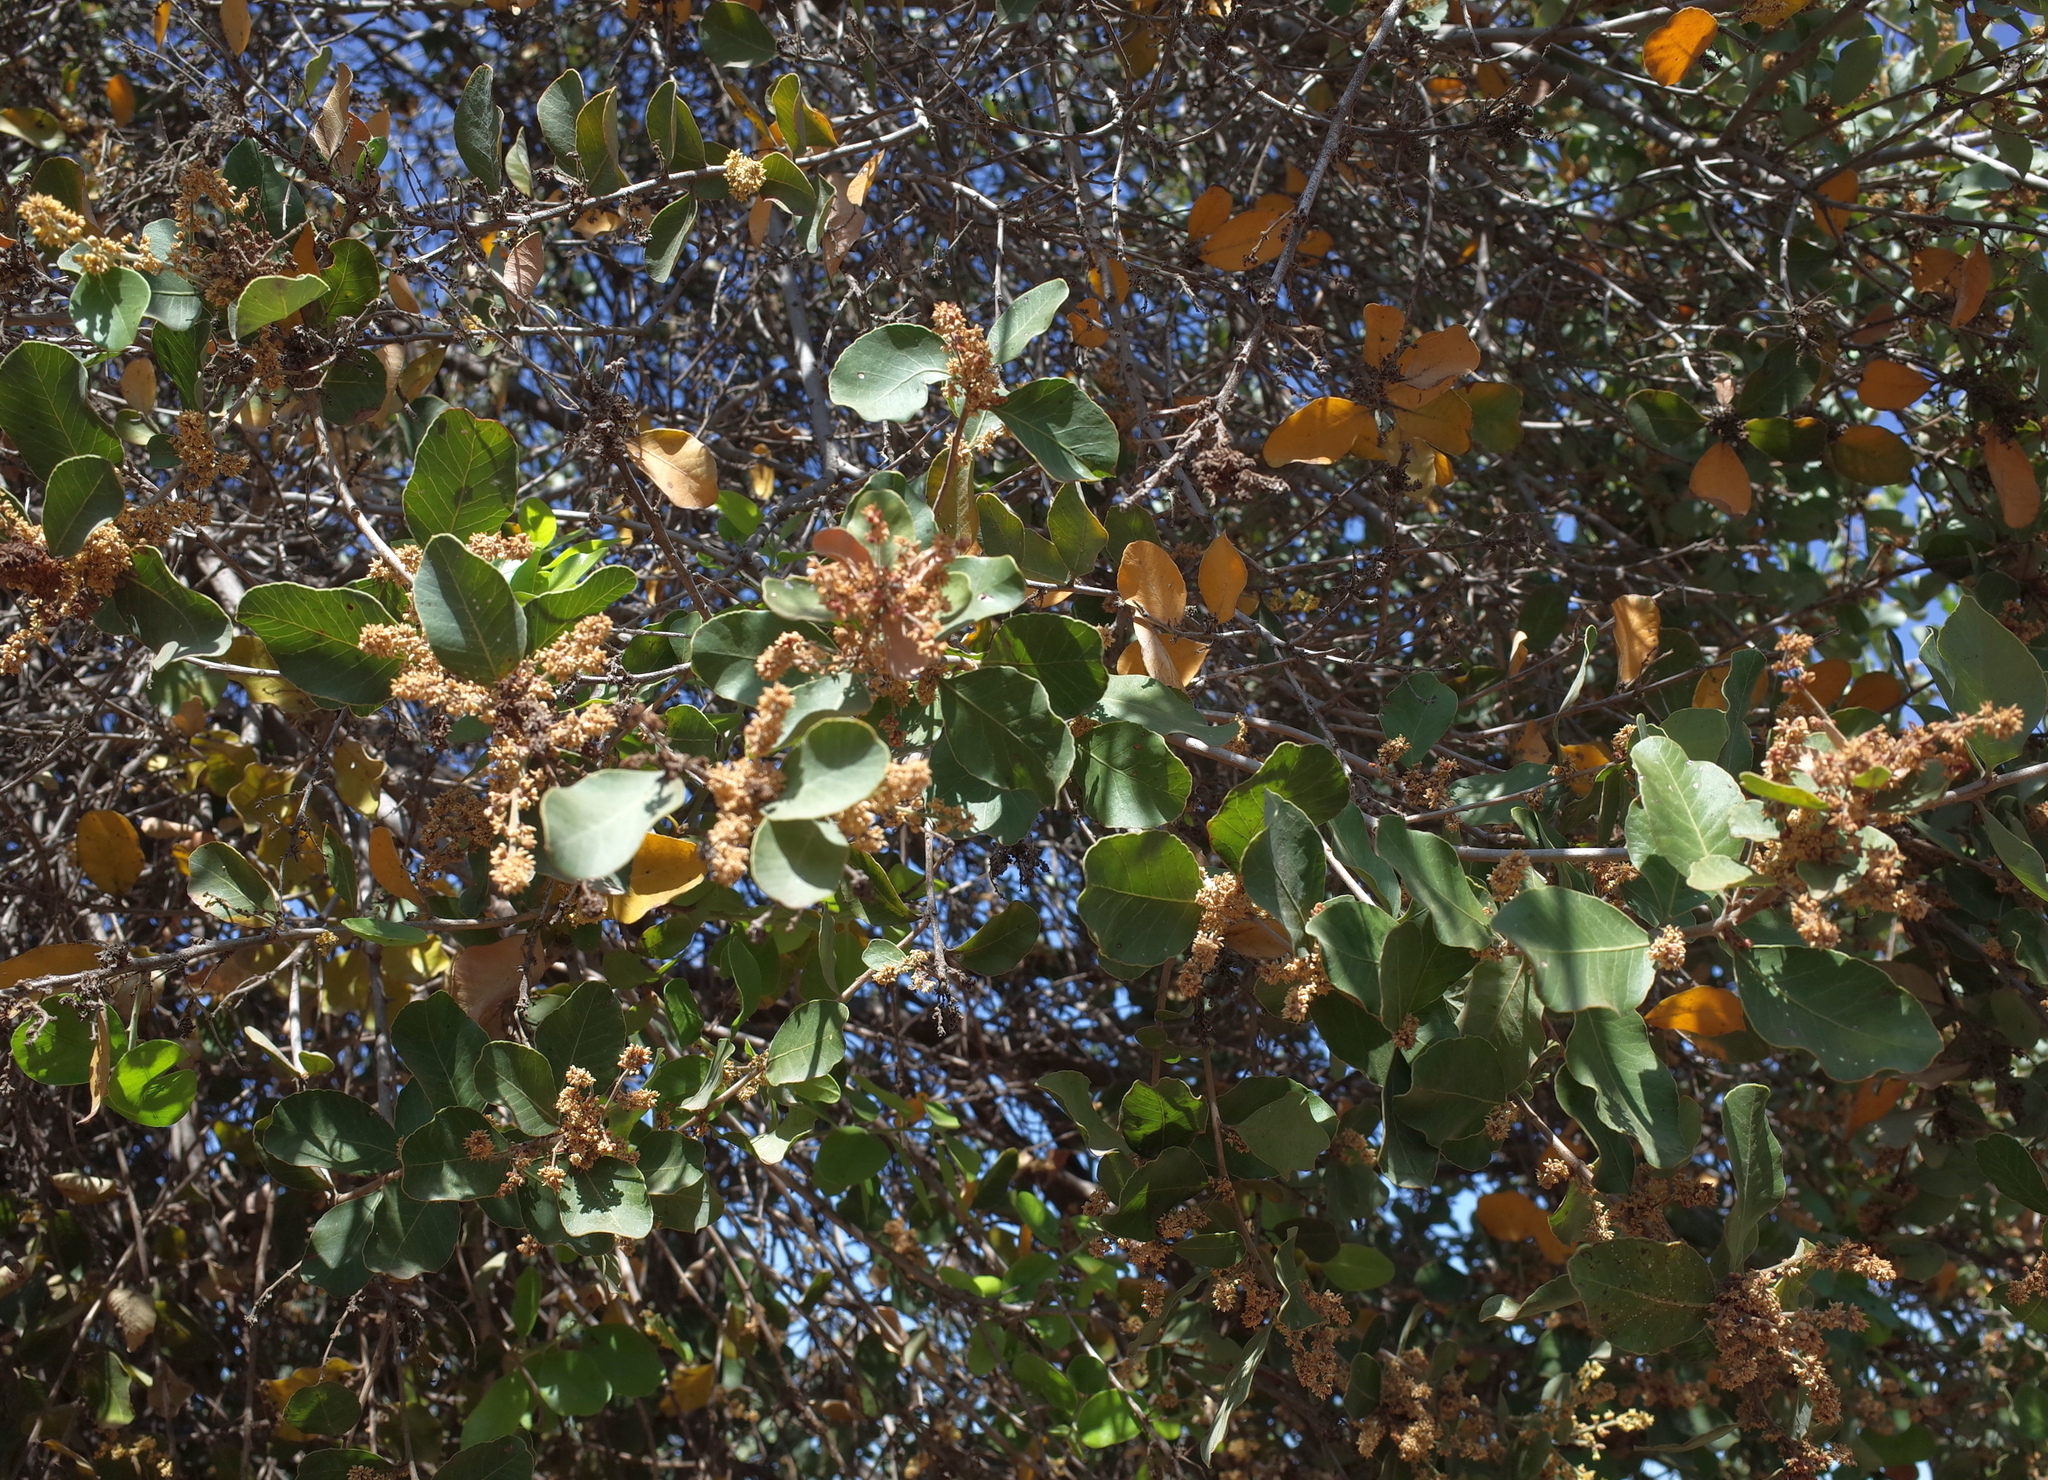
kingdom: Plantae
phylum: Tracheophyta
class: Magnoliopsida
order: Sapindales
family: Anacardiaceae
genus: Lithraea
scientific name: Lithraea caustica
